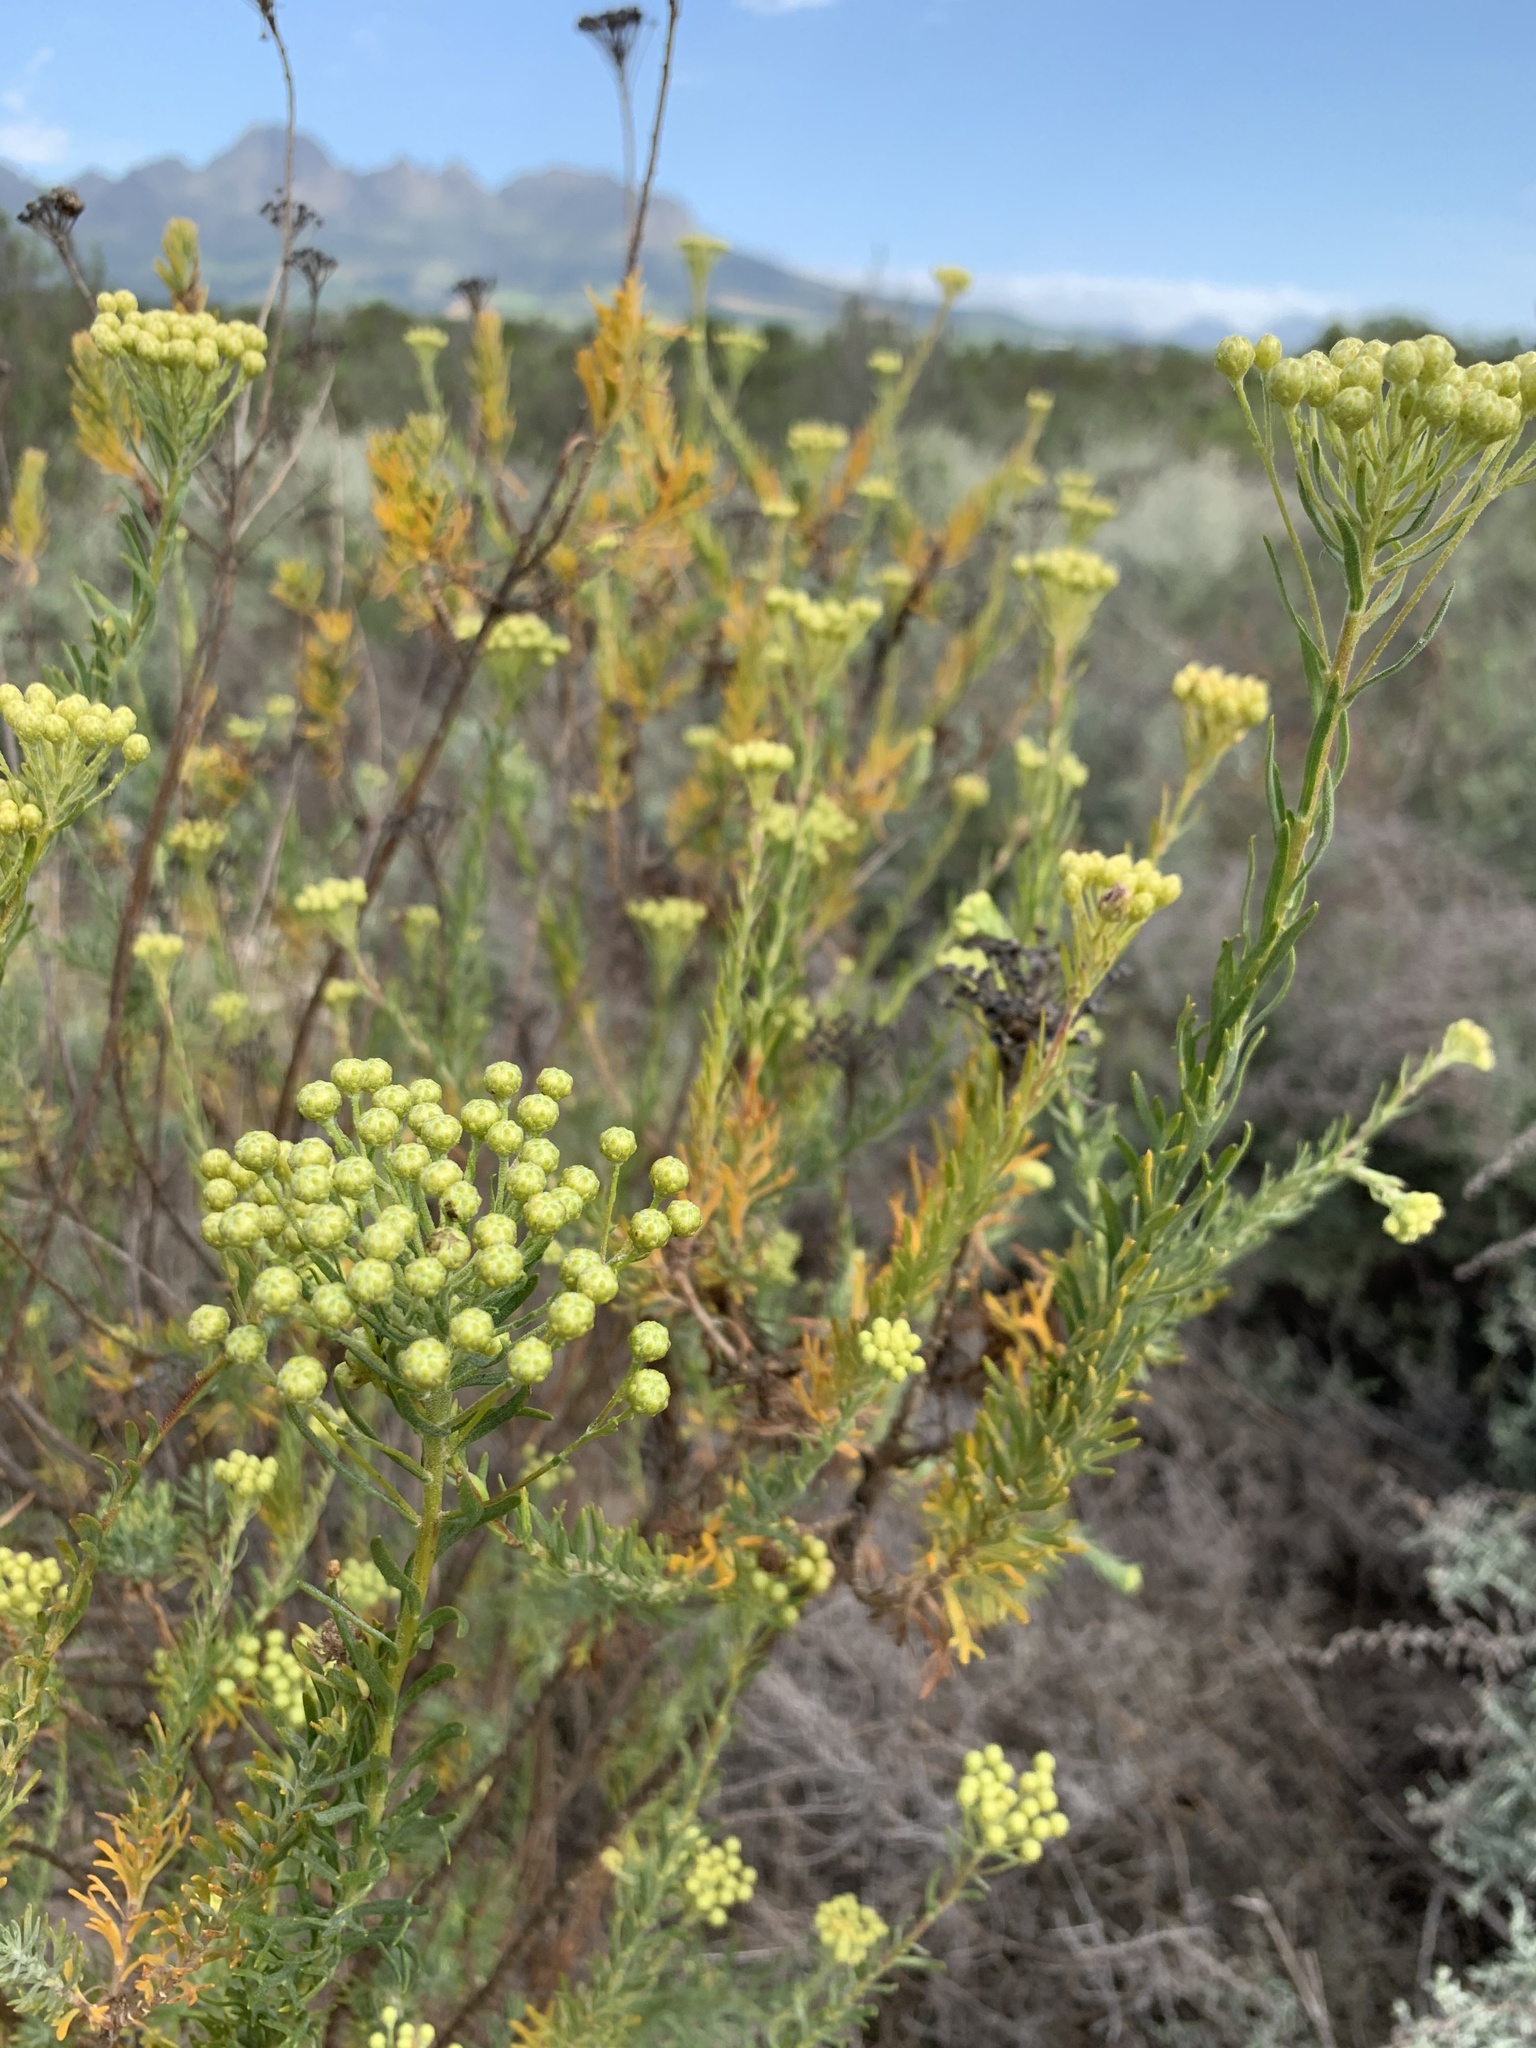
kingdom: Plantae
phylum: Tracheophyta
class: Magnoliopsida
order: Asterales
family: Asteraceae
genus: Athanasia
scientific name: Athanasia trifurcata
